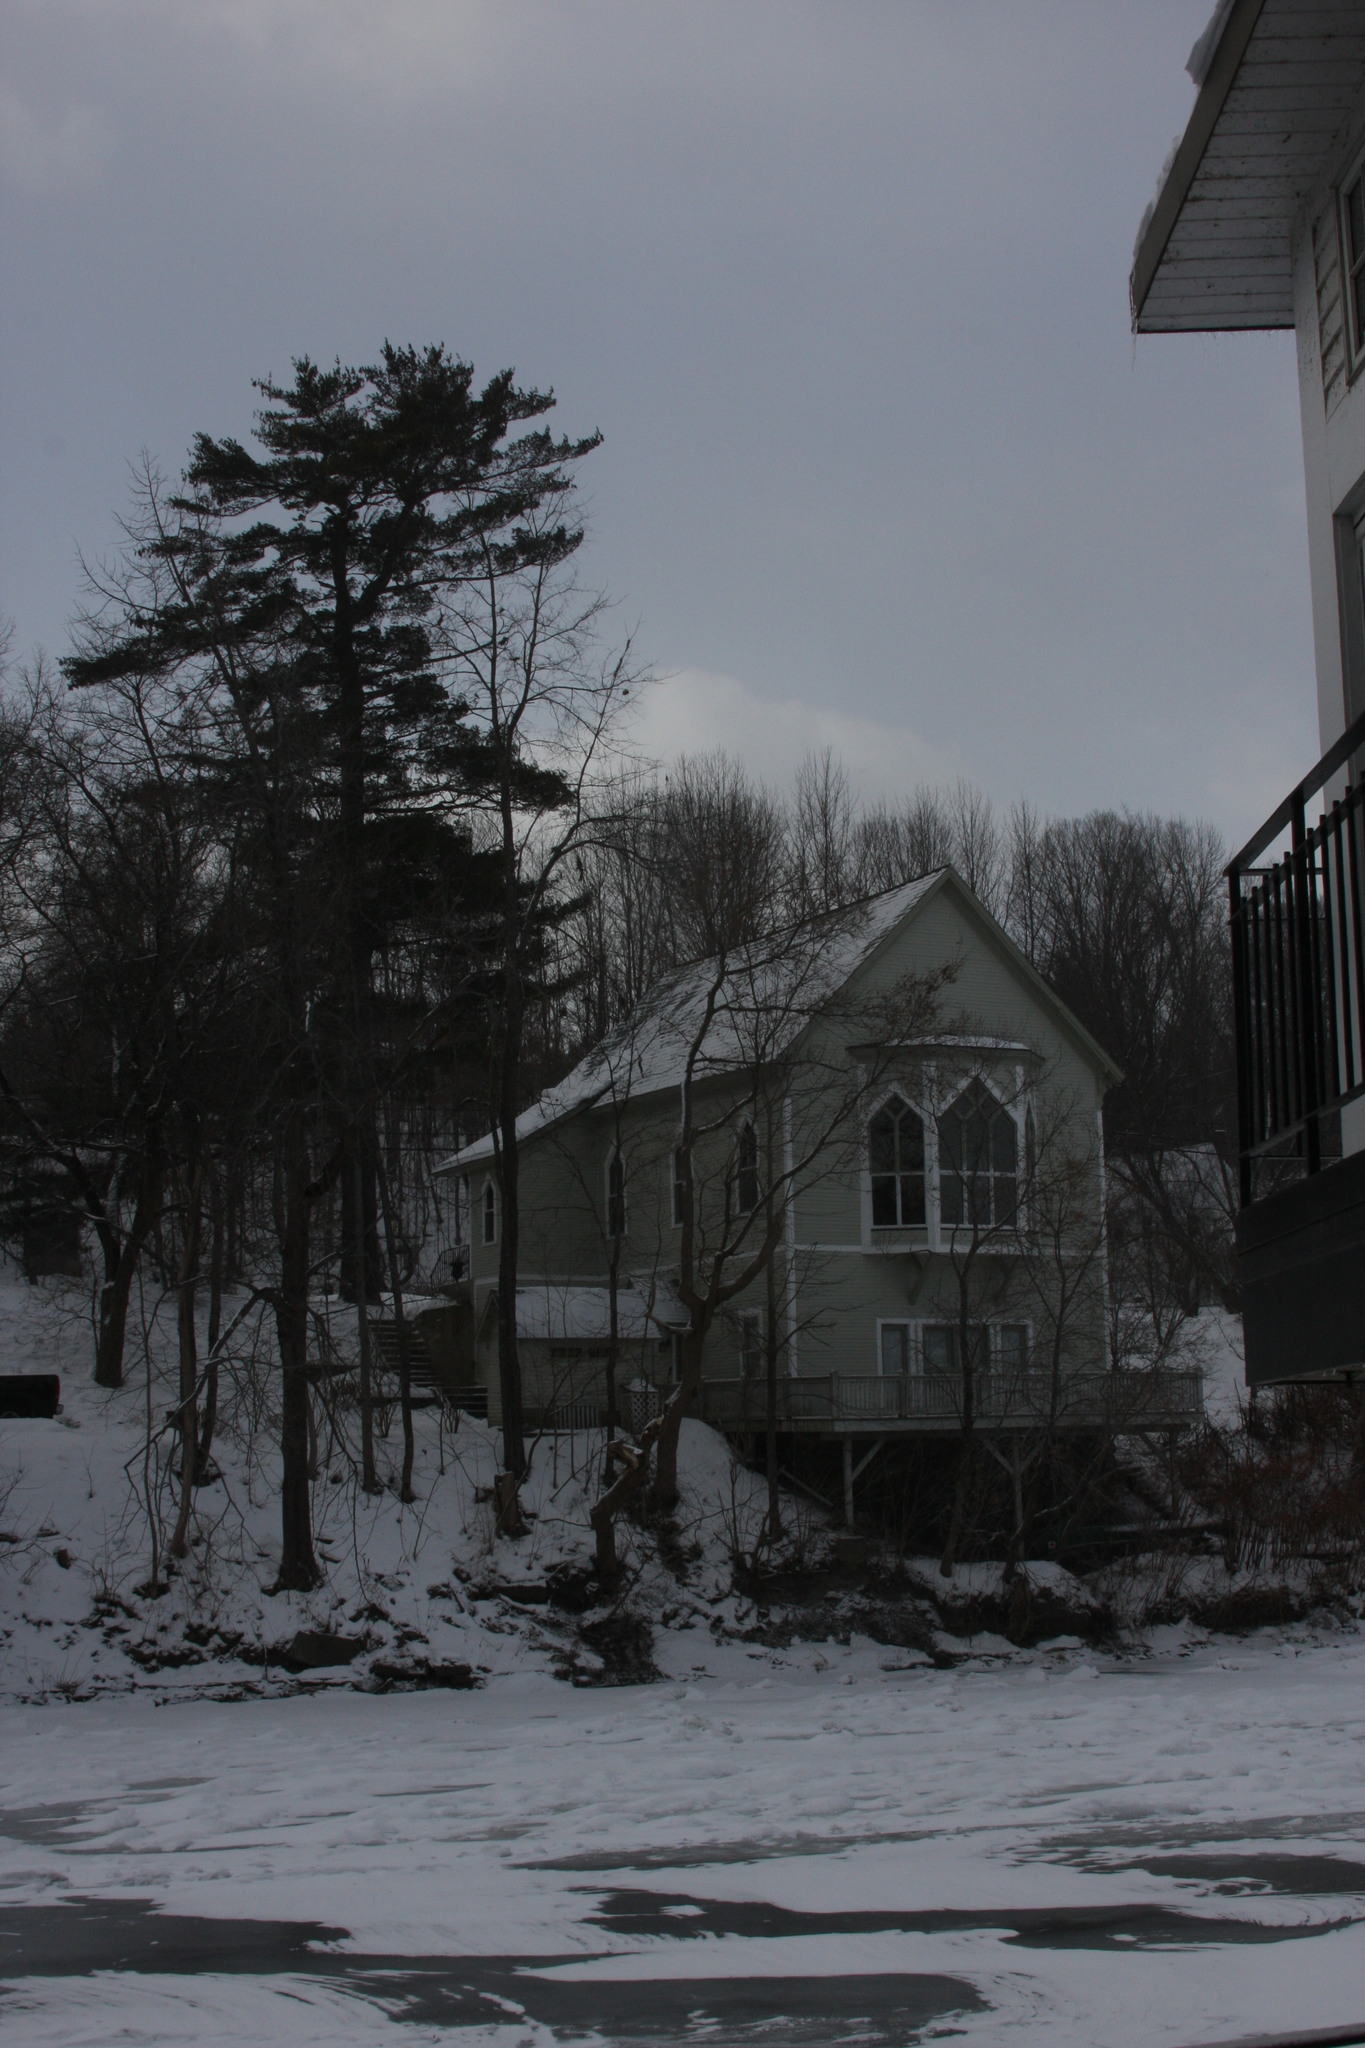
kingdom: Plantae
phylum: Tracheophyta
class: Pinopsida
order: Pinales
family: Pinaceae
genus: Pinus
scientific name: Pinus strobus
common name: Weymouth pine
